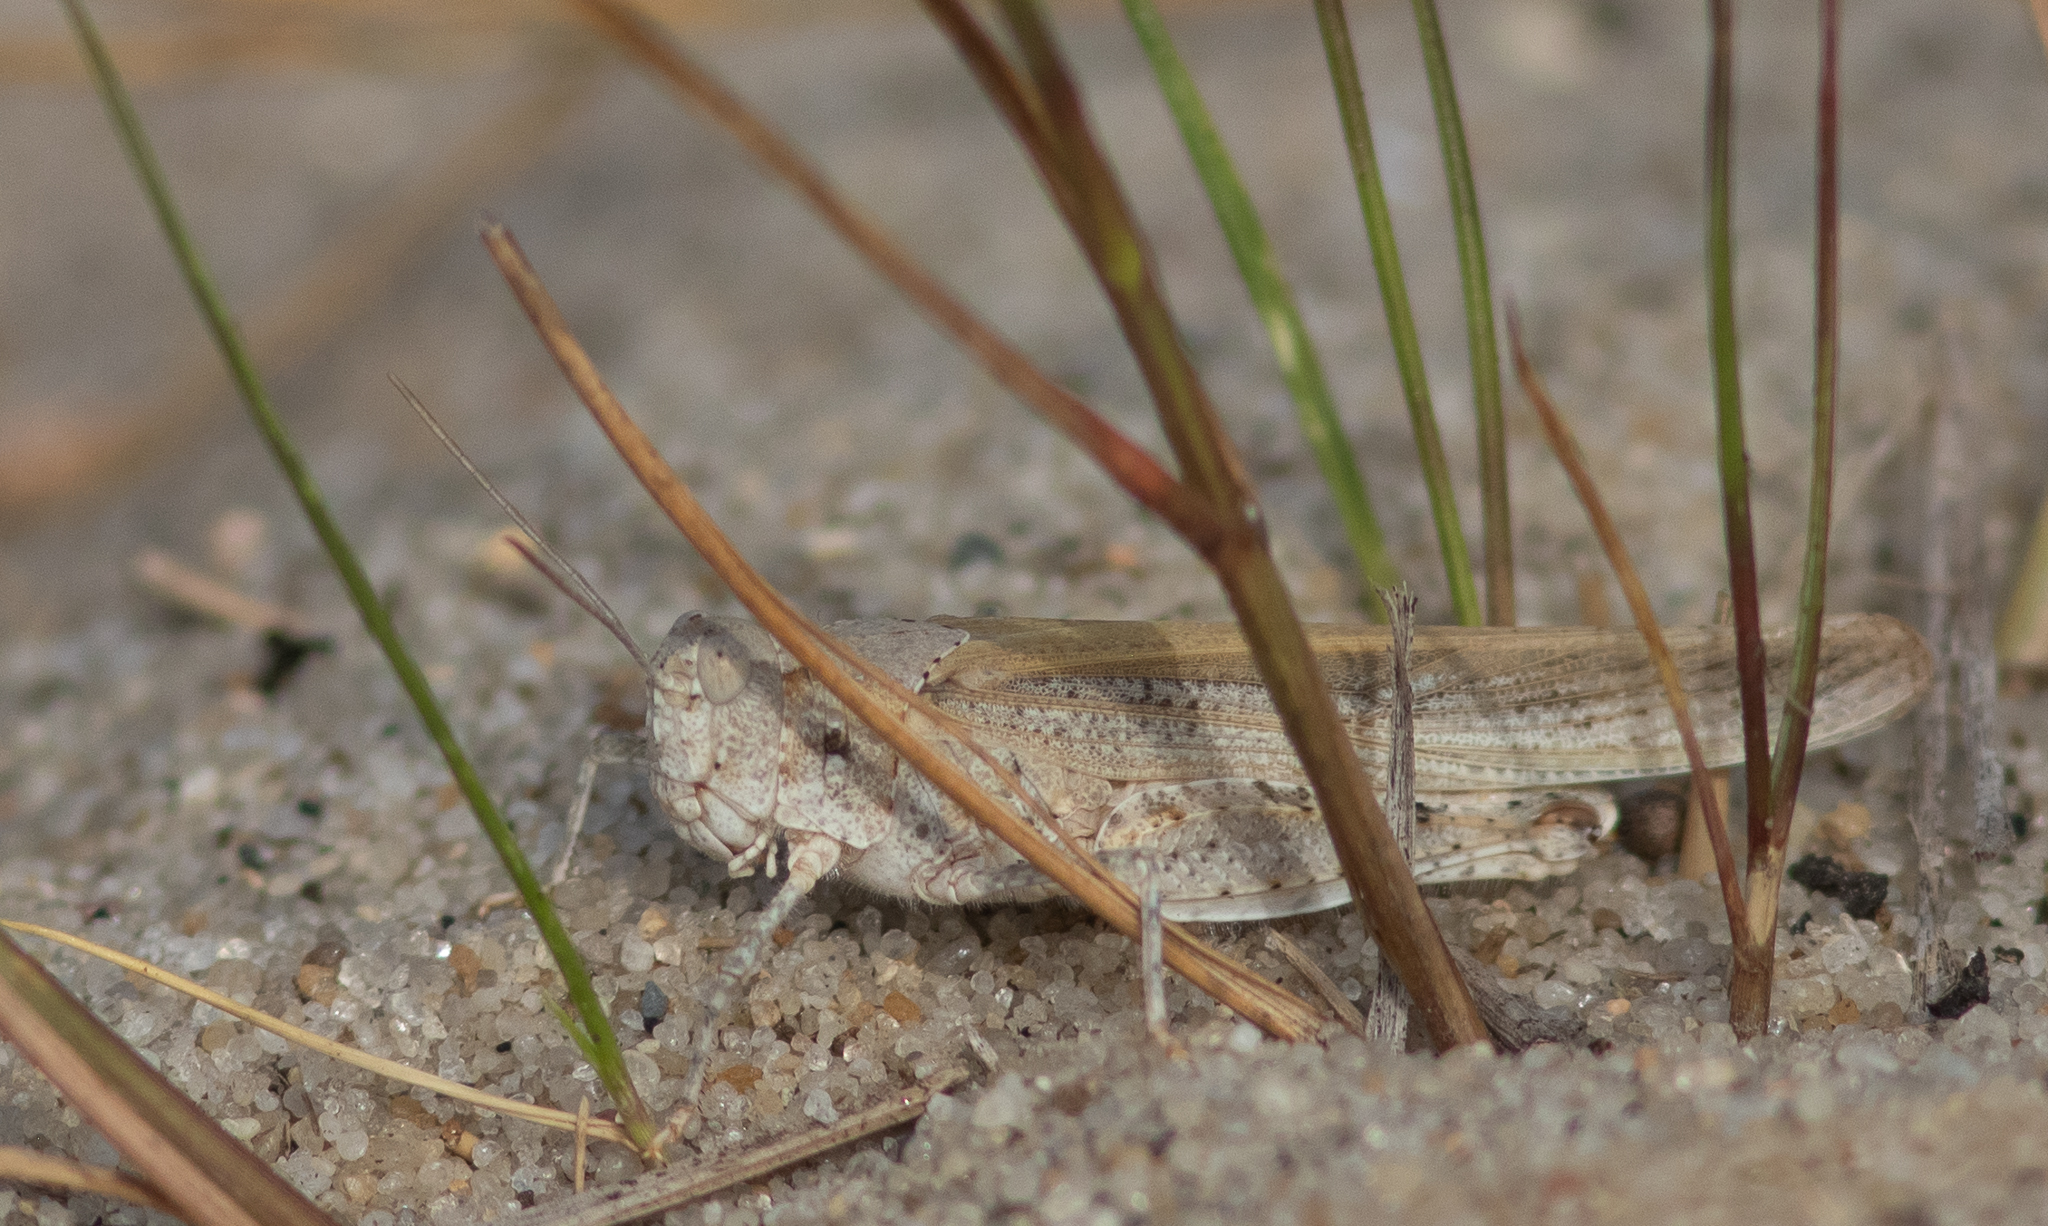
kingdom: Animalia
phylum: Arthropoda
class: Insecta
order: Orthoptera
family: Acrididae
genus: Trimerotropis
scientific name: Trimerotropis maritima
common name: Seaside locust
